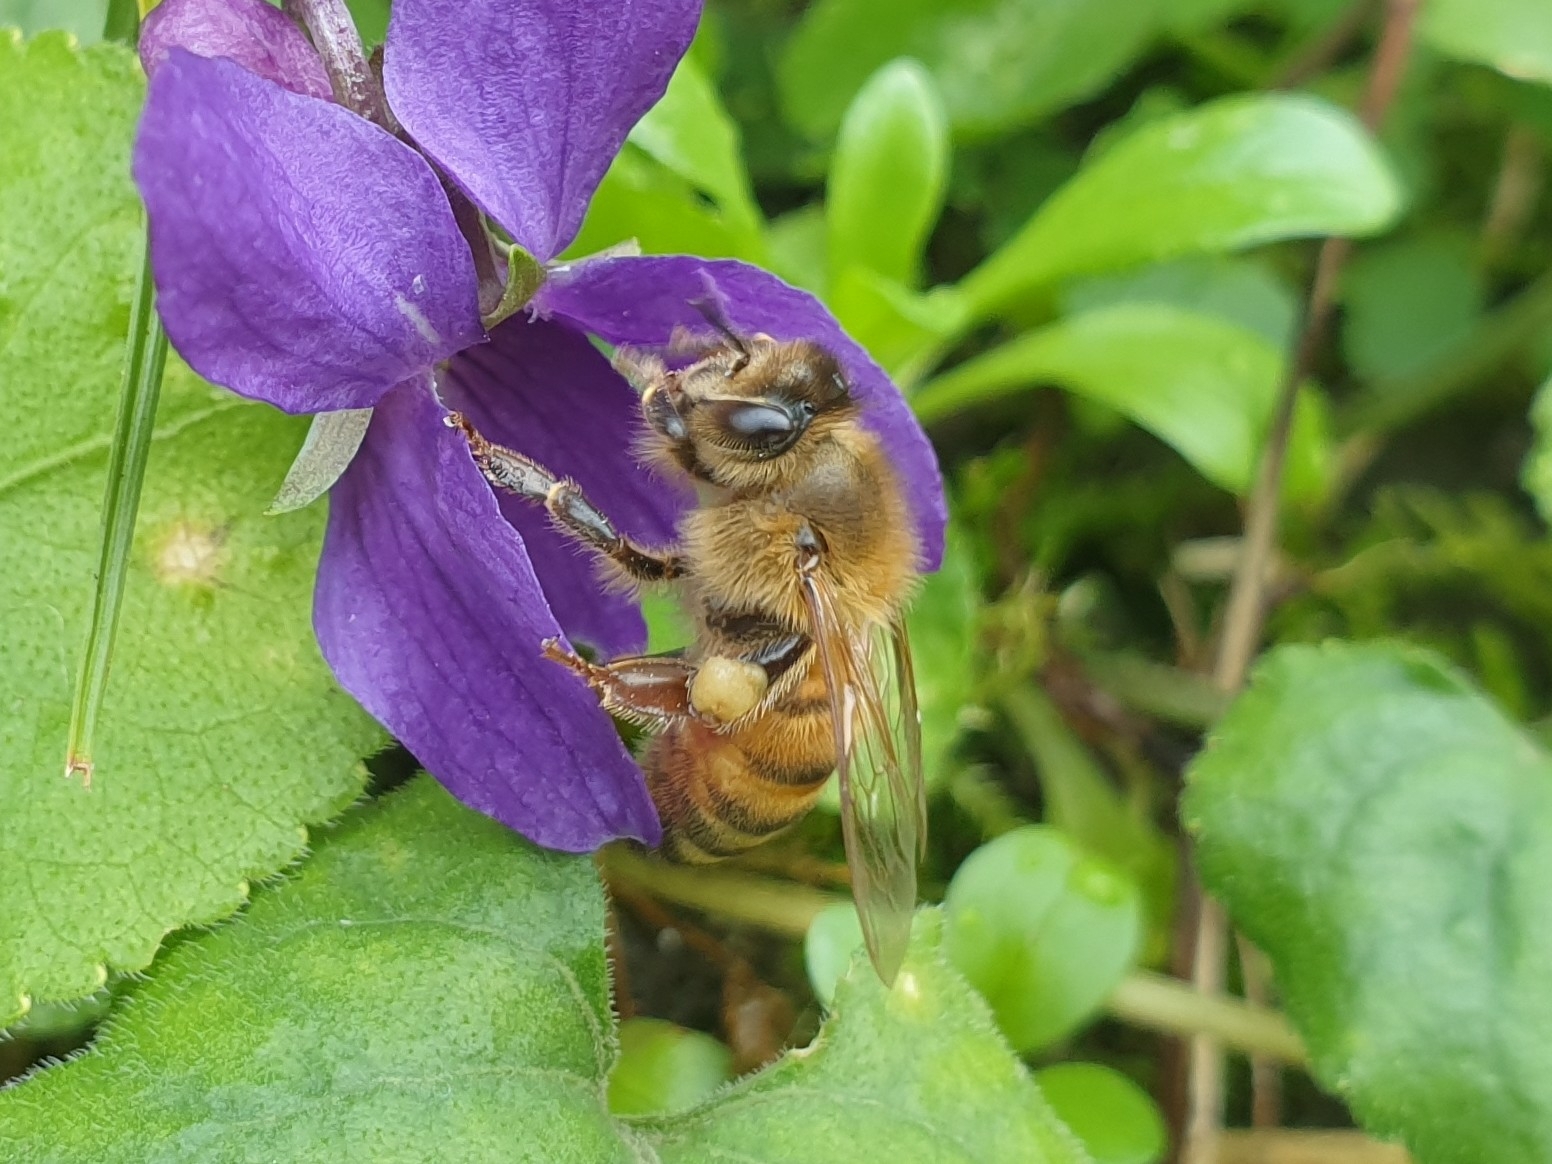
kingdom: Animalia
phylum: Arthropoda
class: Insecta
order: Hymenoptera
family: Apidae
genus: Apis
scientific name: Apis mellifera
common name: Honey bee
